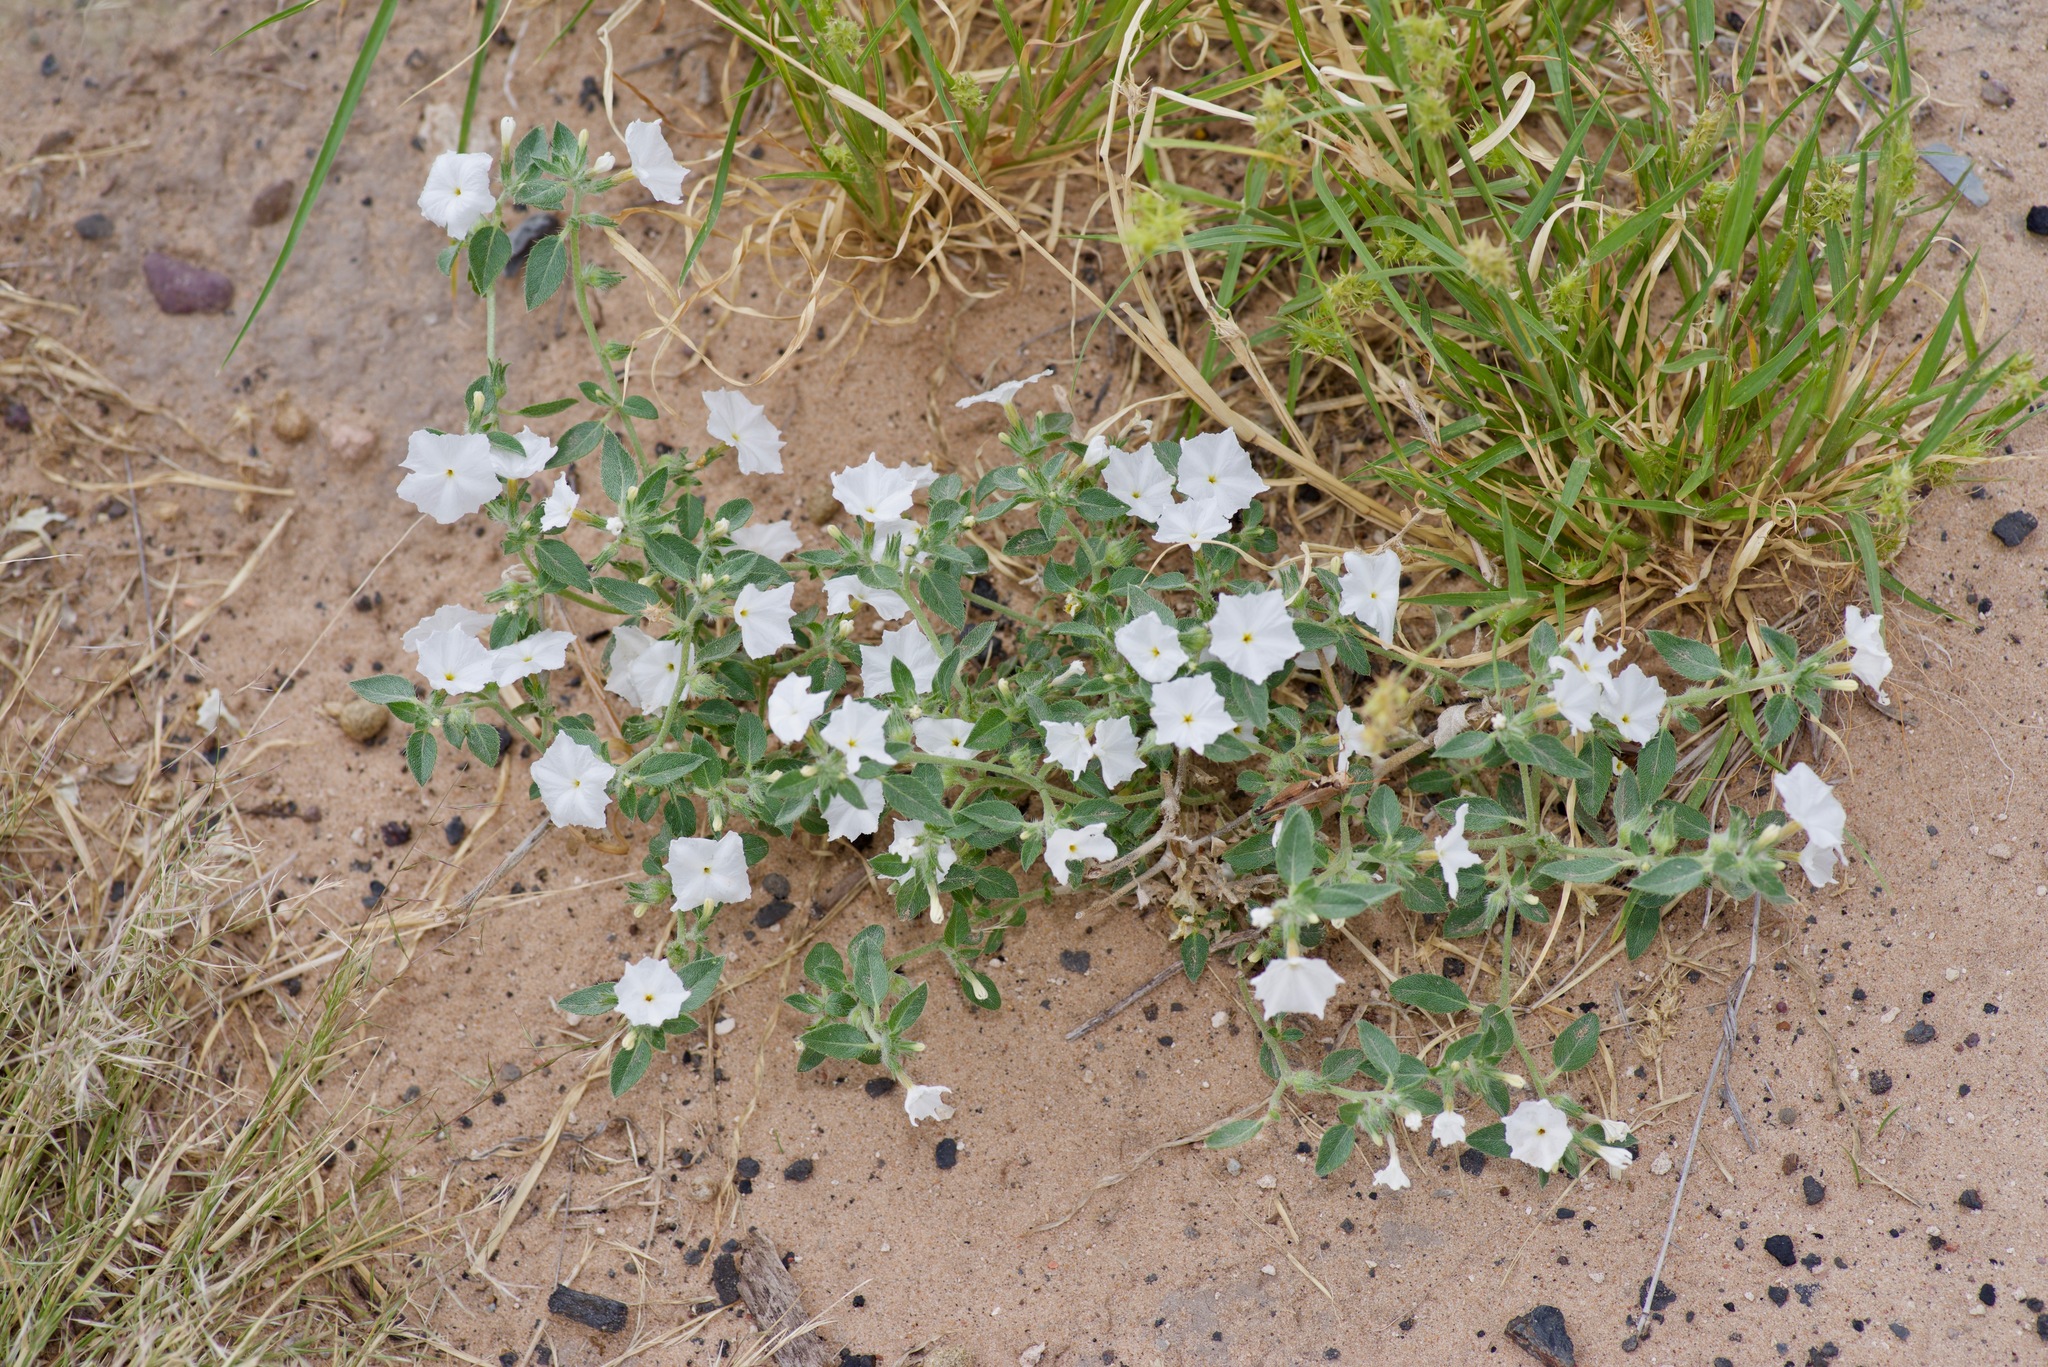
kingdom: Plantae
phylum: Tracheophyta
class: Magnoliopsida
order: Boraginales
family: Heliotropiaceae
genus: Euploca
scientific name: Euploca convolvulacea
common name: Bindweed heliotrope
